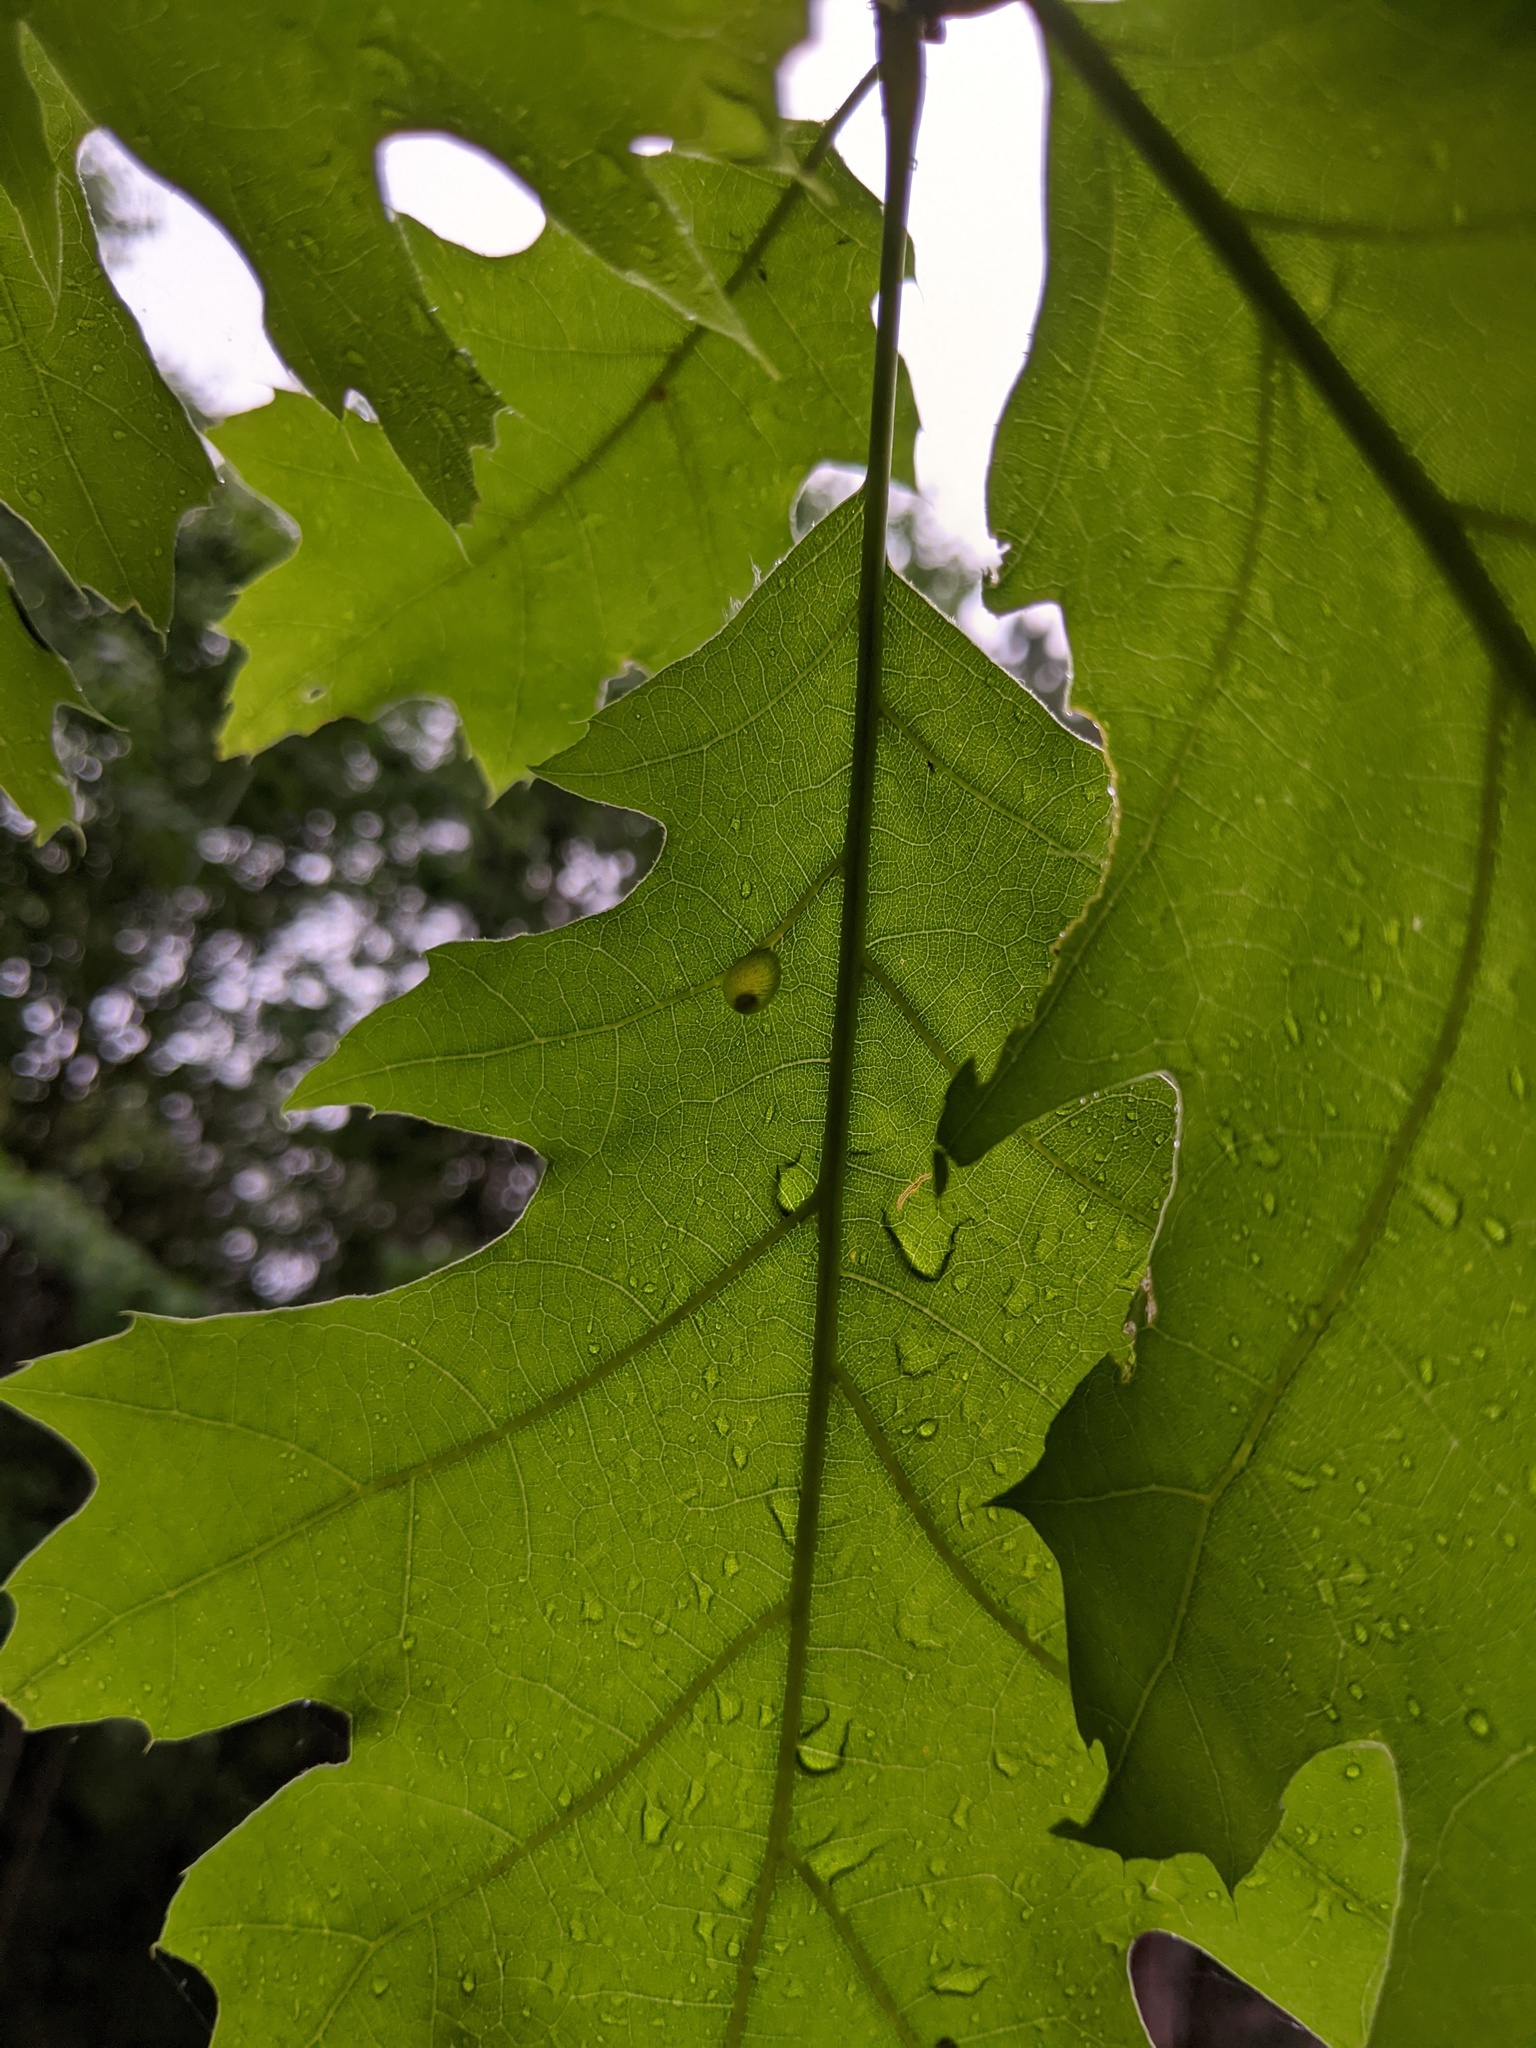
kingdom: Animalia
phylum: Arthropoda
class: Insecta
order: Hymenoptera
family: Cynipidae
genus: Dryocosmus
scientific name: Dryocosmus
